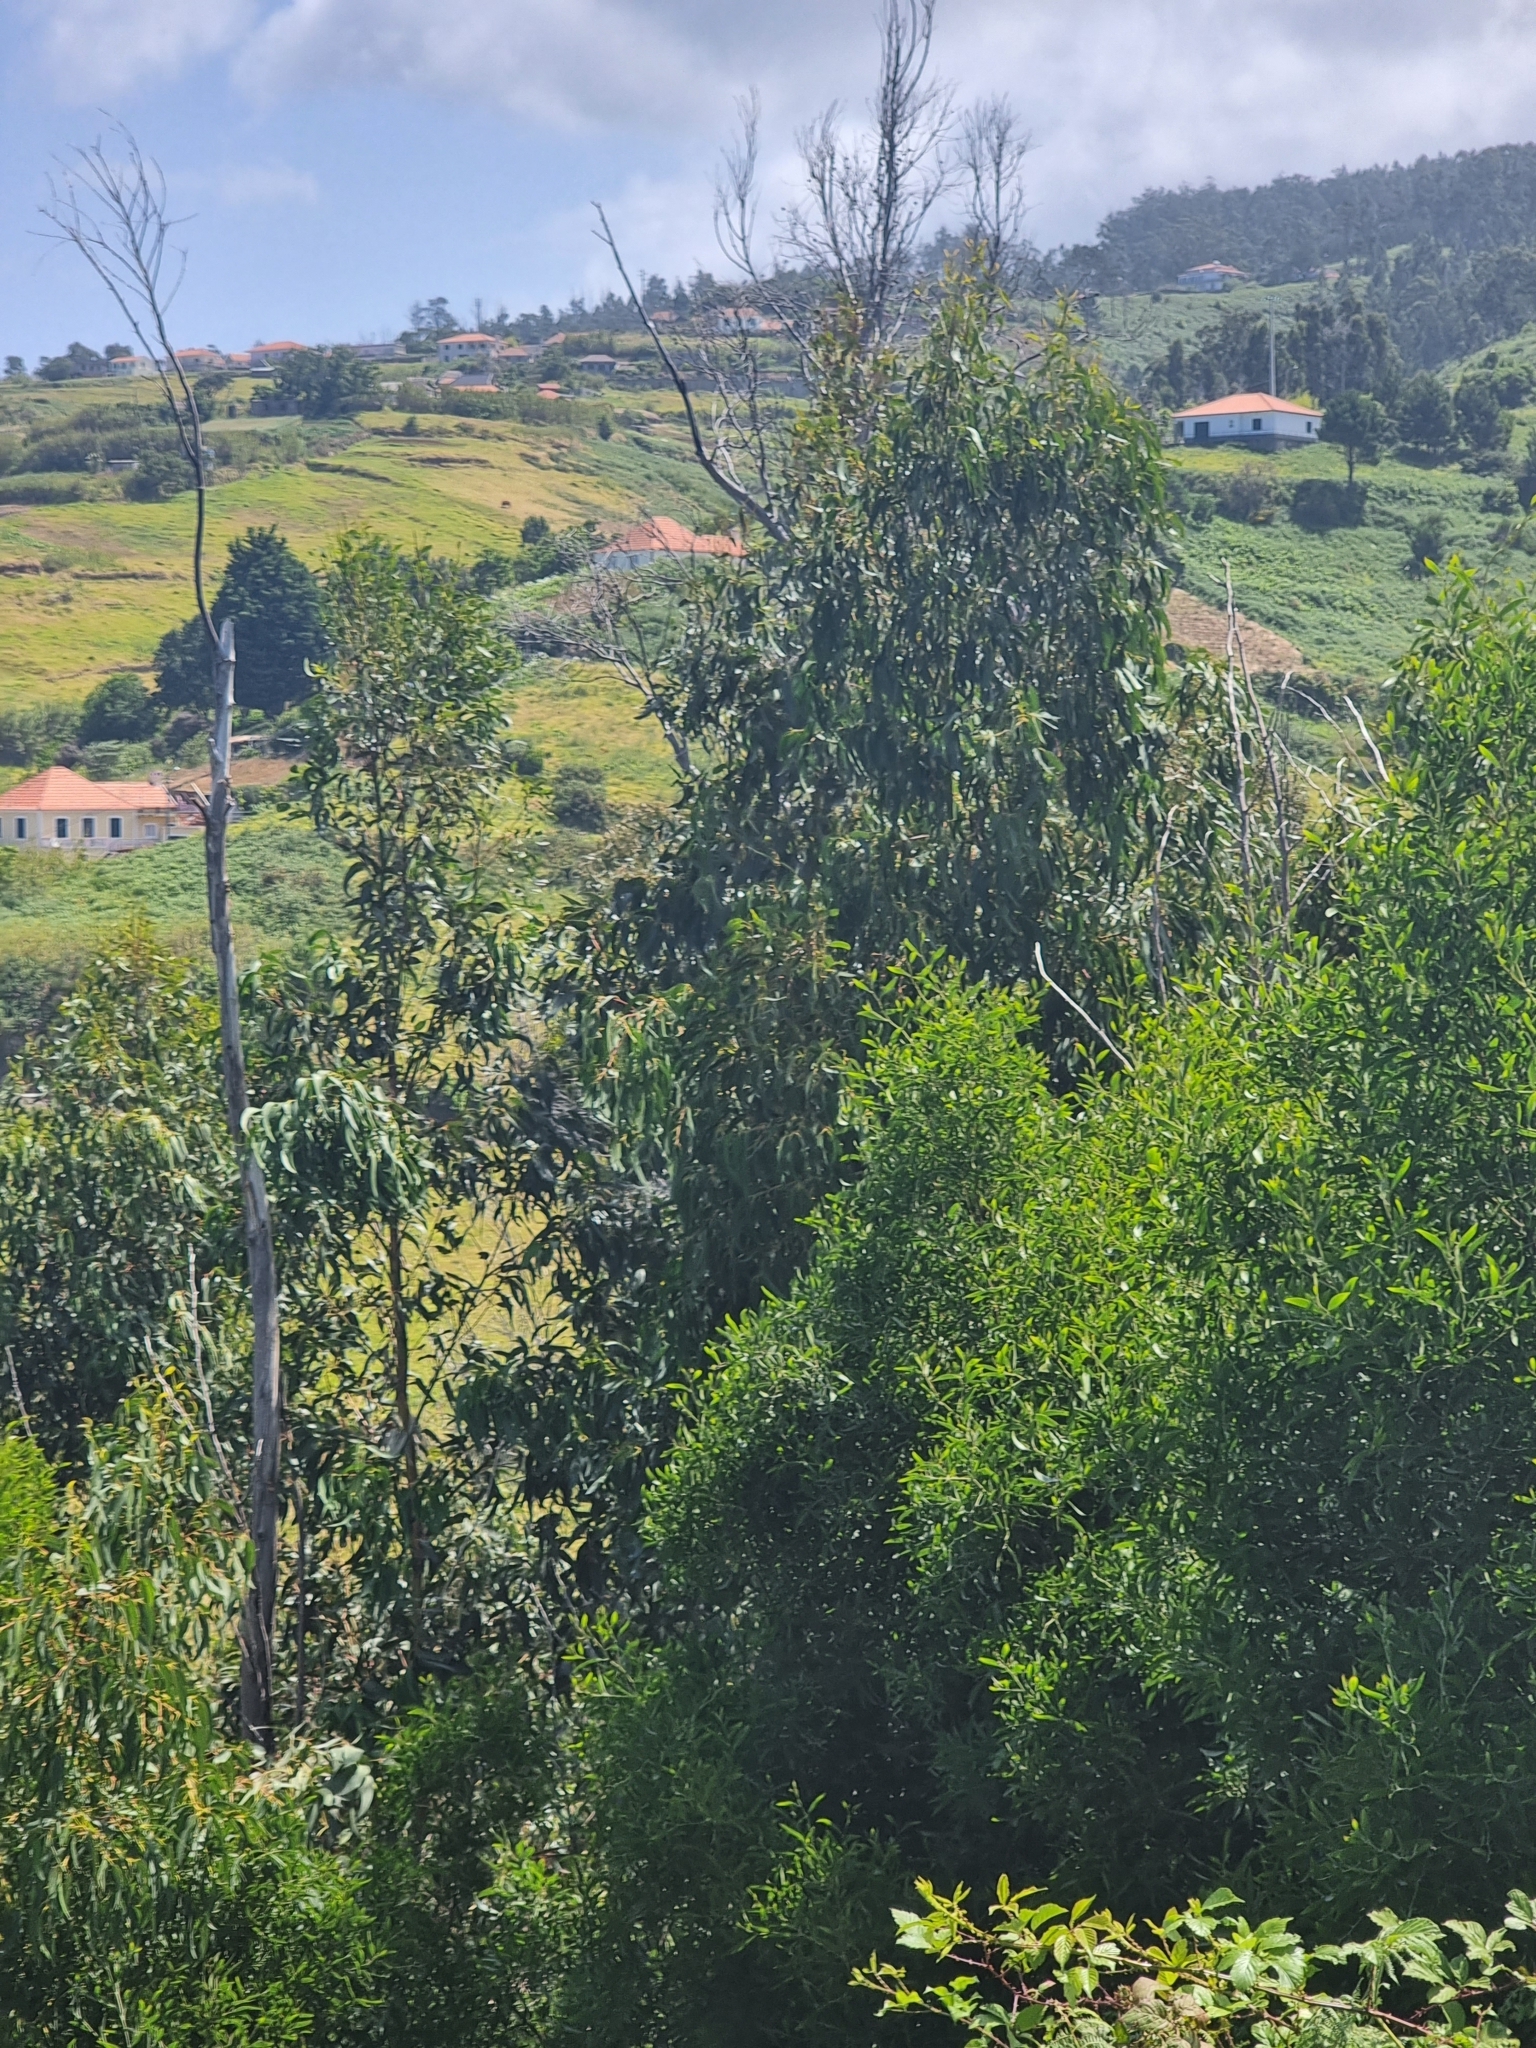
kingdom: Plantae
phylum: Tracheophyta
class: Magnoliopsida
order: Myrtales
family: Myrtaceae
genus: Eucalyptus
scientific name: Eucalyptus globulus
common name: Southern blue-gum
